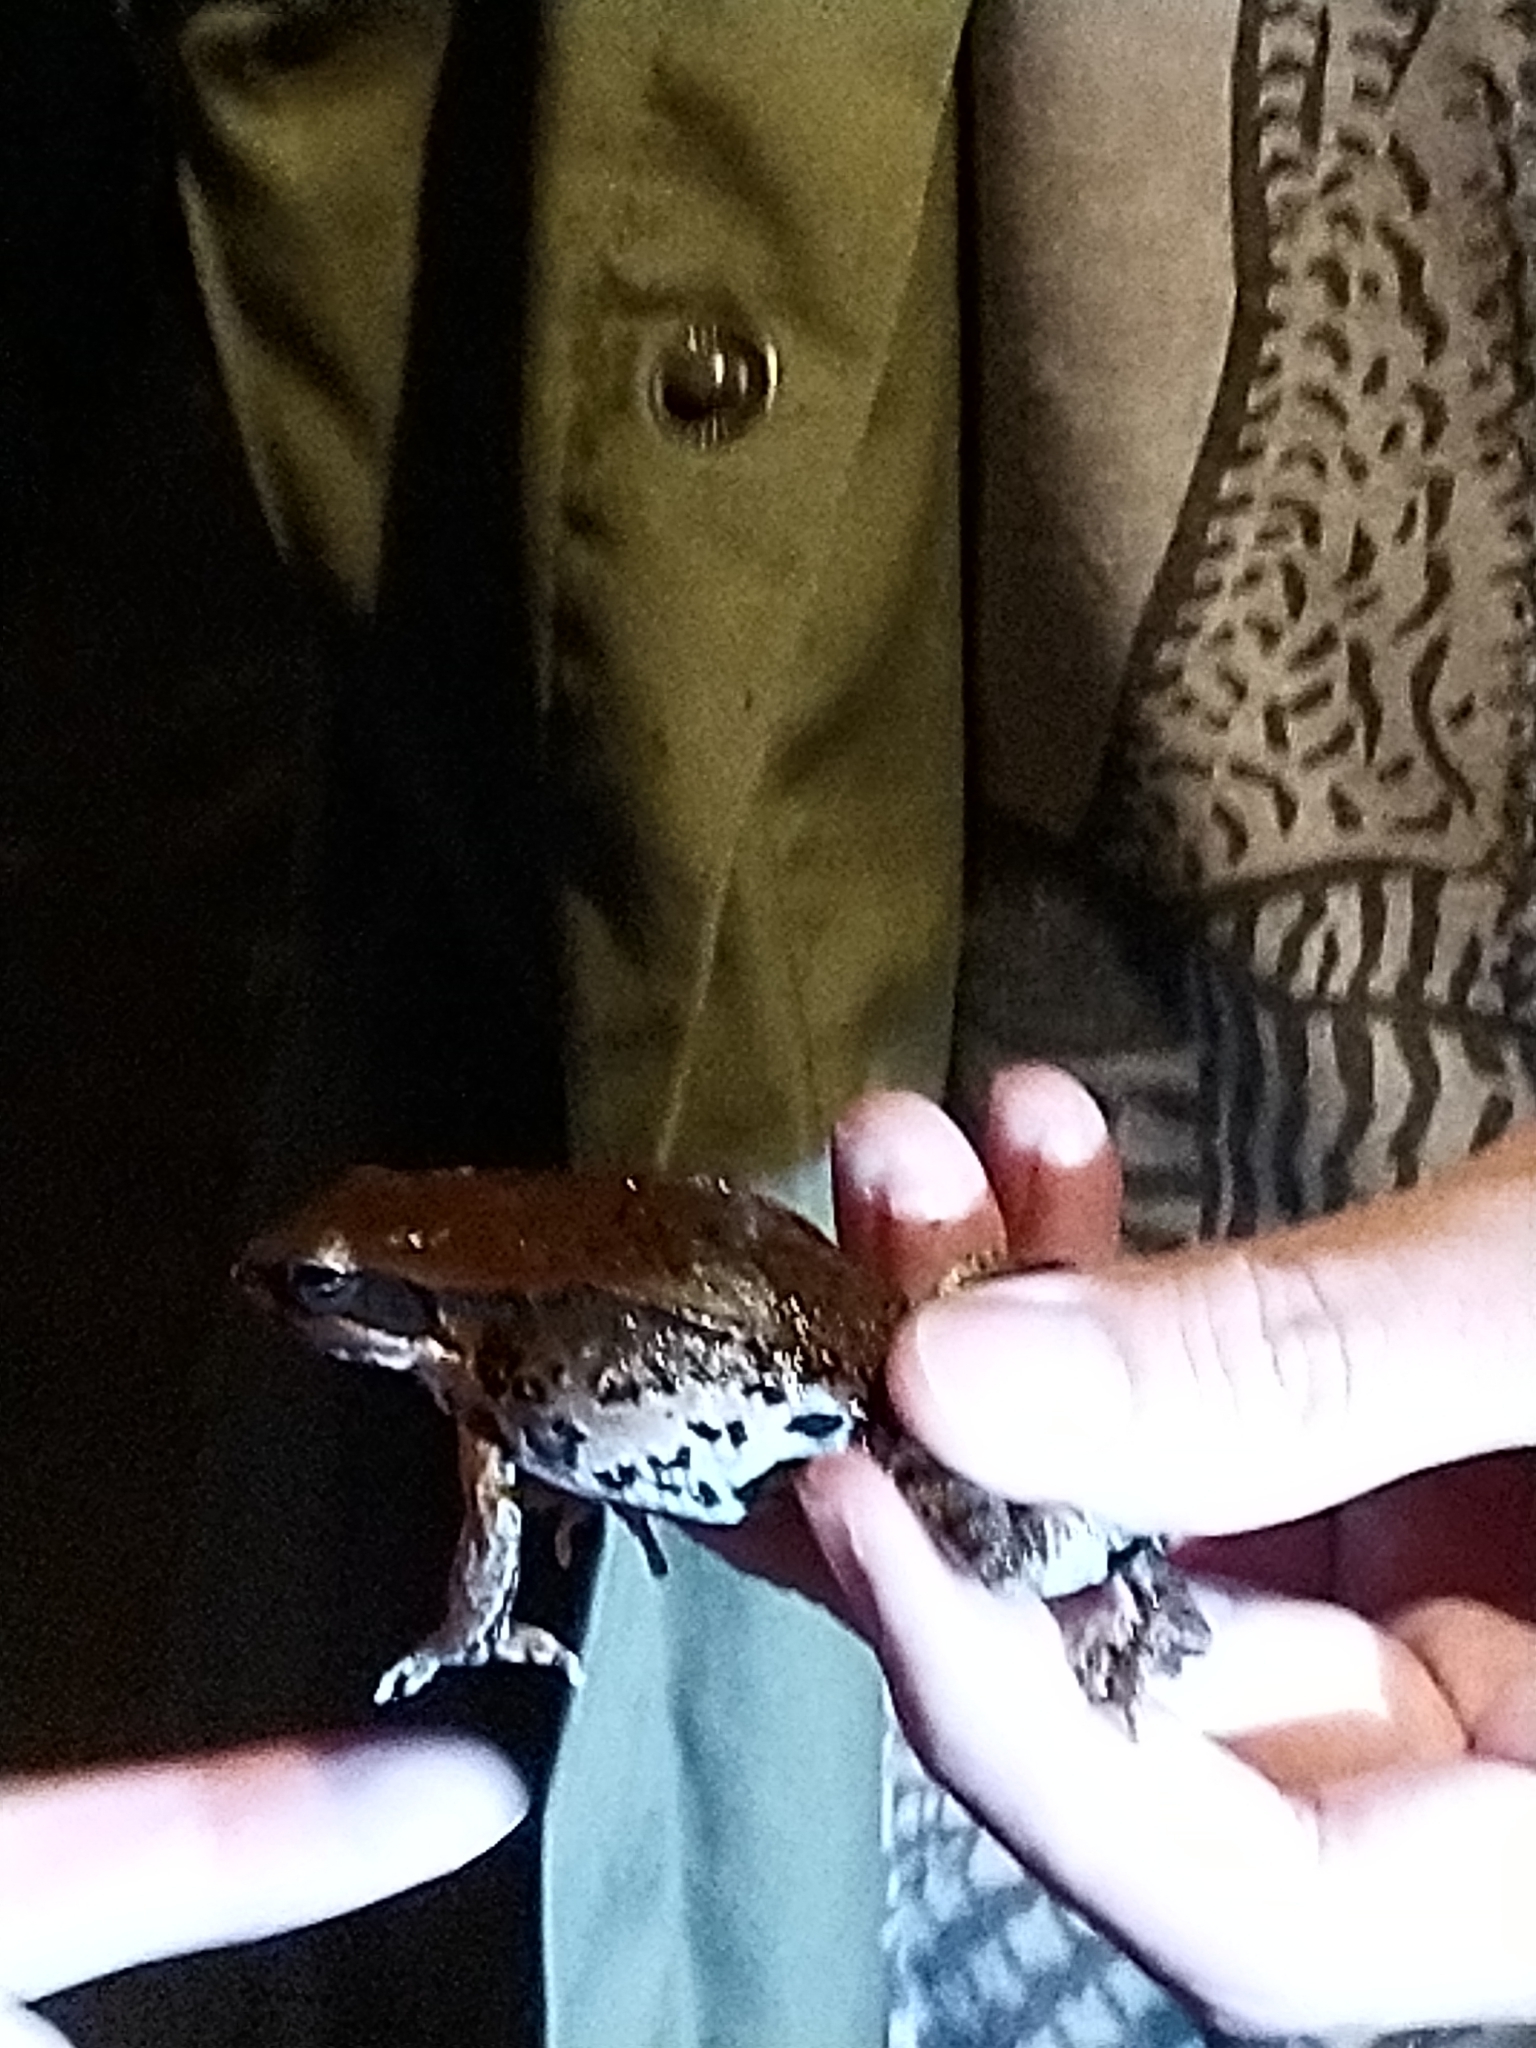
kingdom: Animalia
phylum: Chordata
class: Amphibia
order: Anura
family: Ranidae
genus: Hylarana
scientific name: Hylarana latouchii
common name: Broad-folded frog
